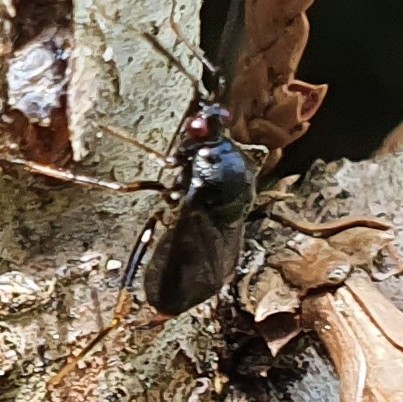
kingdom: Animalia
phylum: Arthropoda
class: Insecta
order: Hemiptera
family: Miridae
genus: Deraeocoris
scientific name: Deraeocoris ruber
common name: Plant bug
